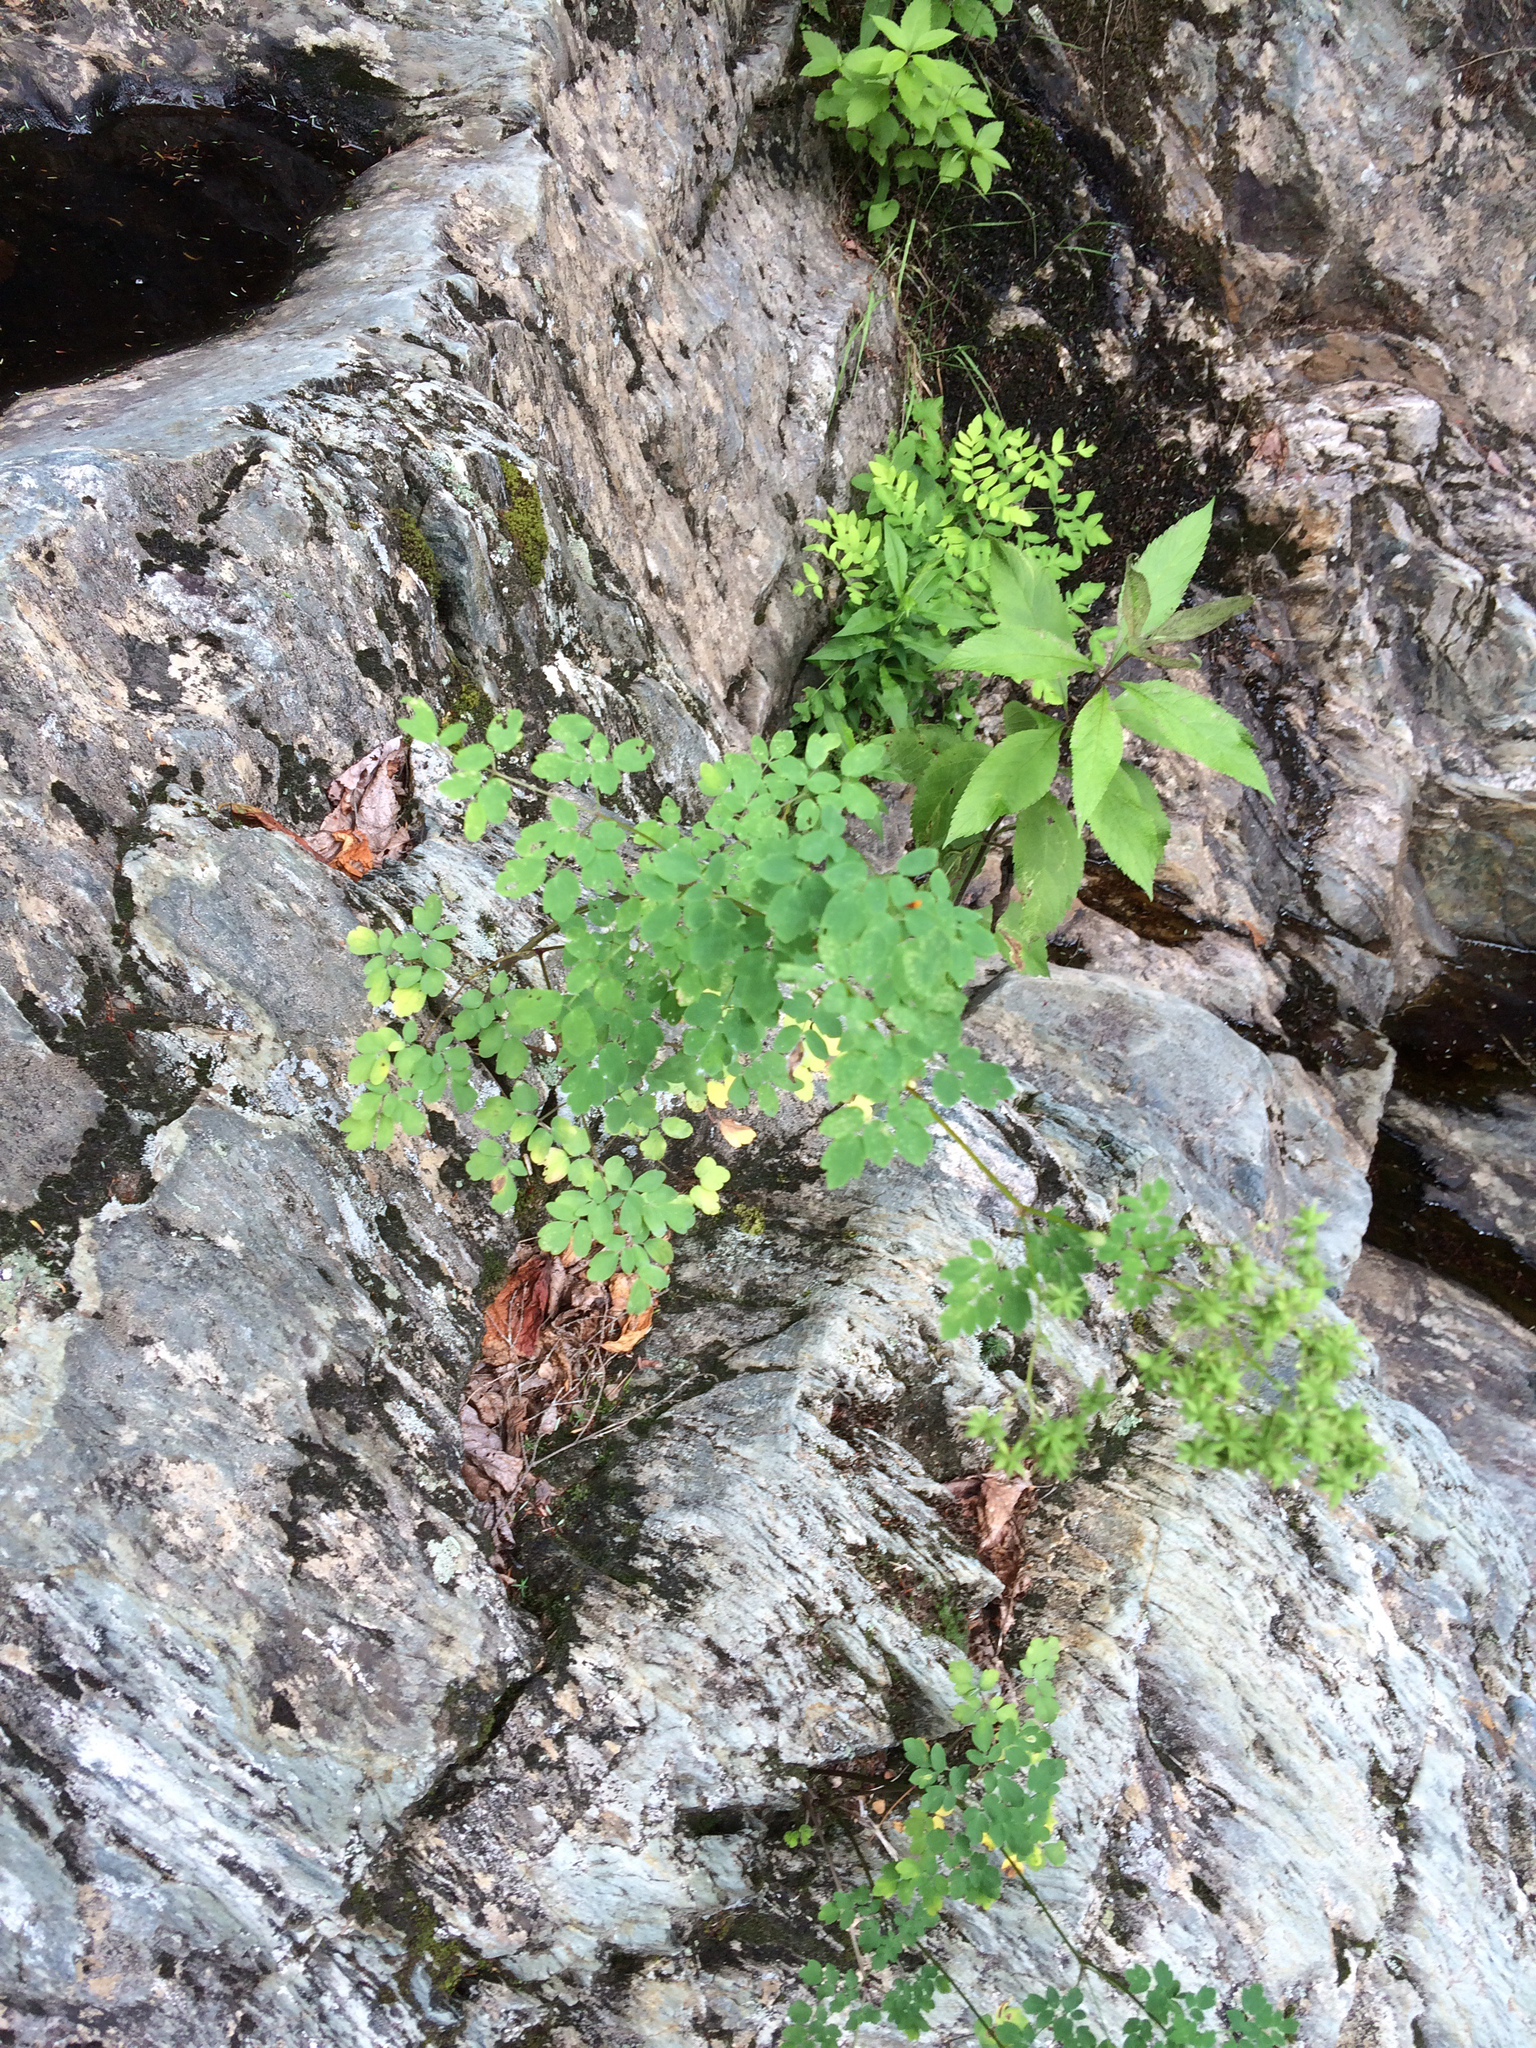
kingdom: Plantae
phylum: Tracheophyta
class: Magnoliopsida
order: Ranunculales
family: Ranunculaceae
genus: Thalictrum
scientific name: Thalictrum pubescens
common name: King-of-the-meadow
